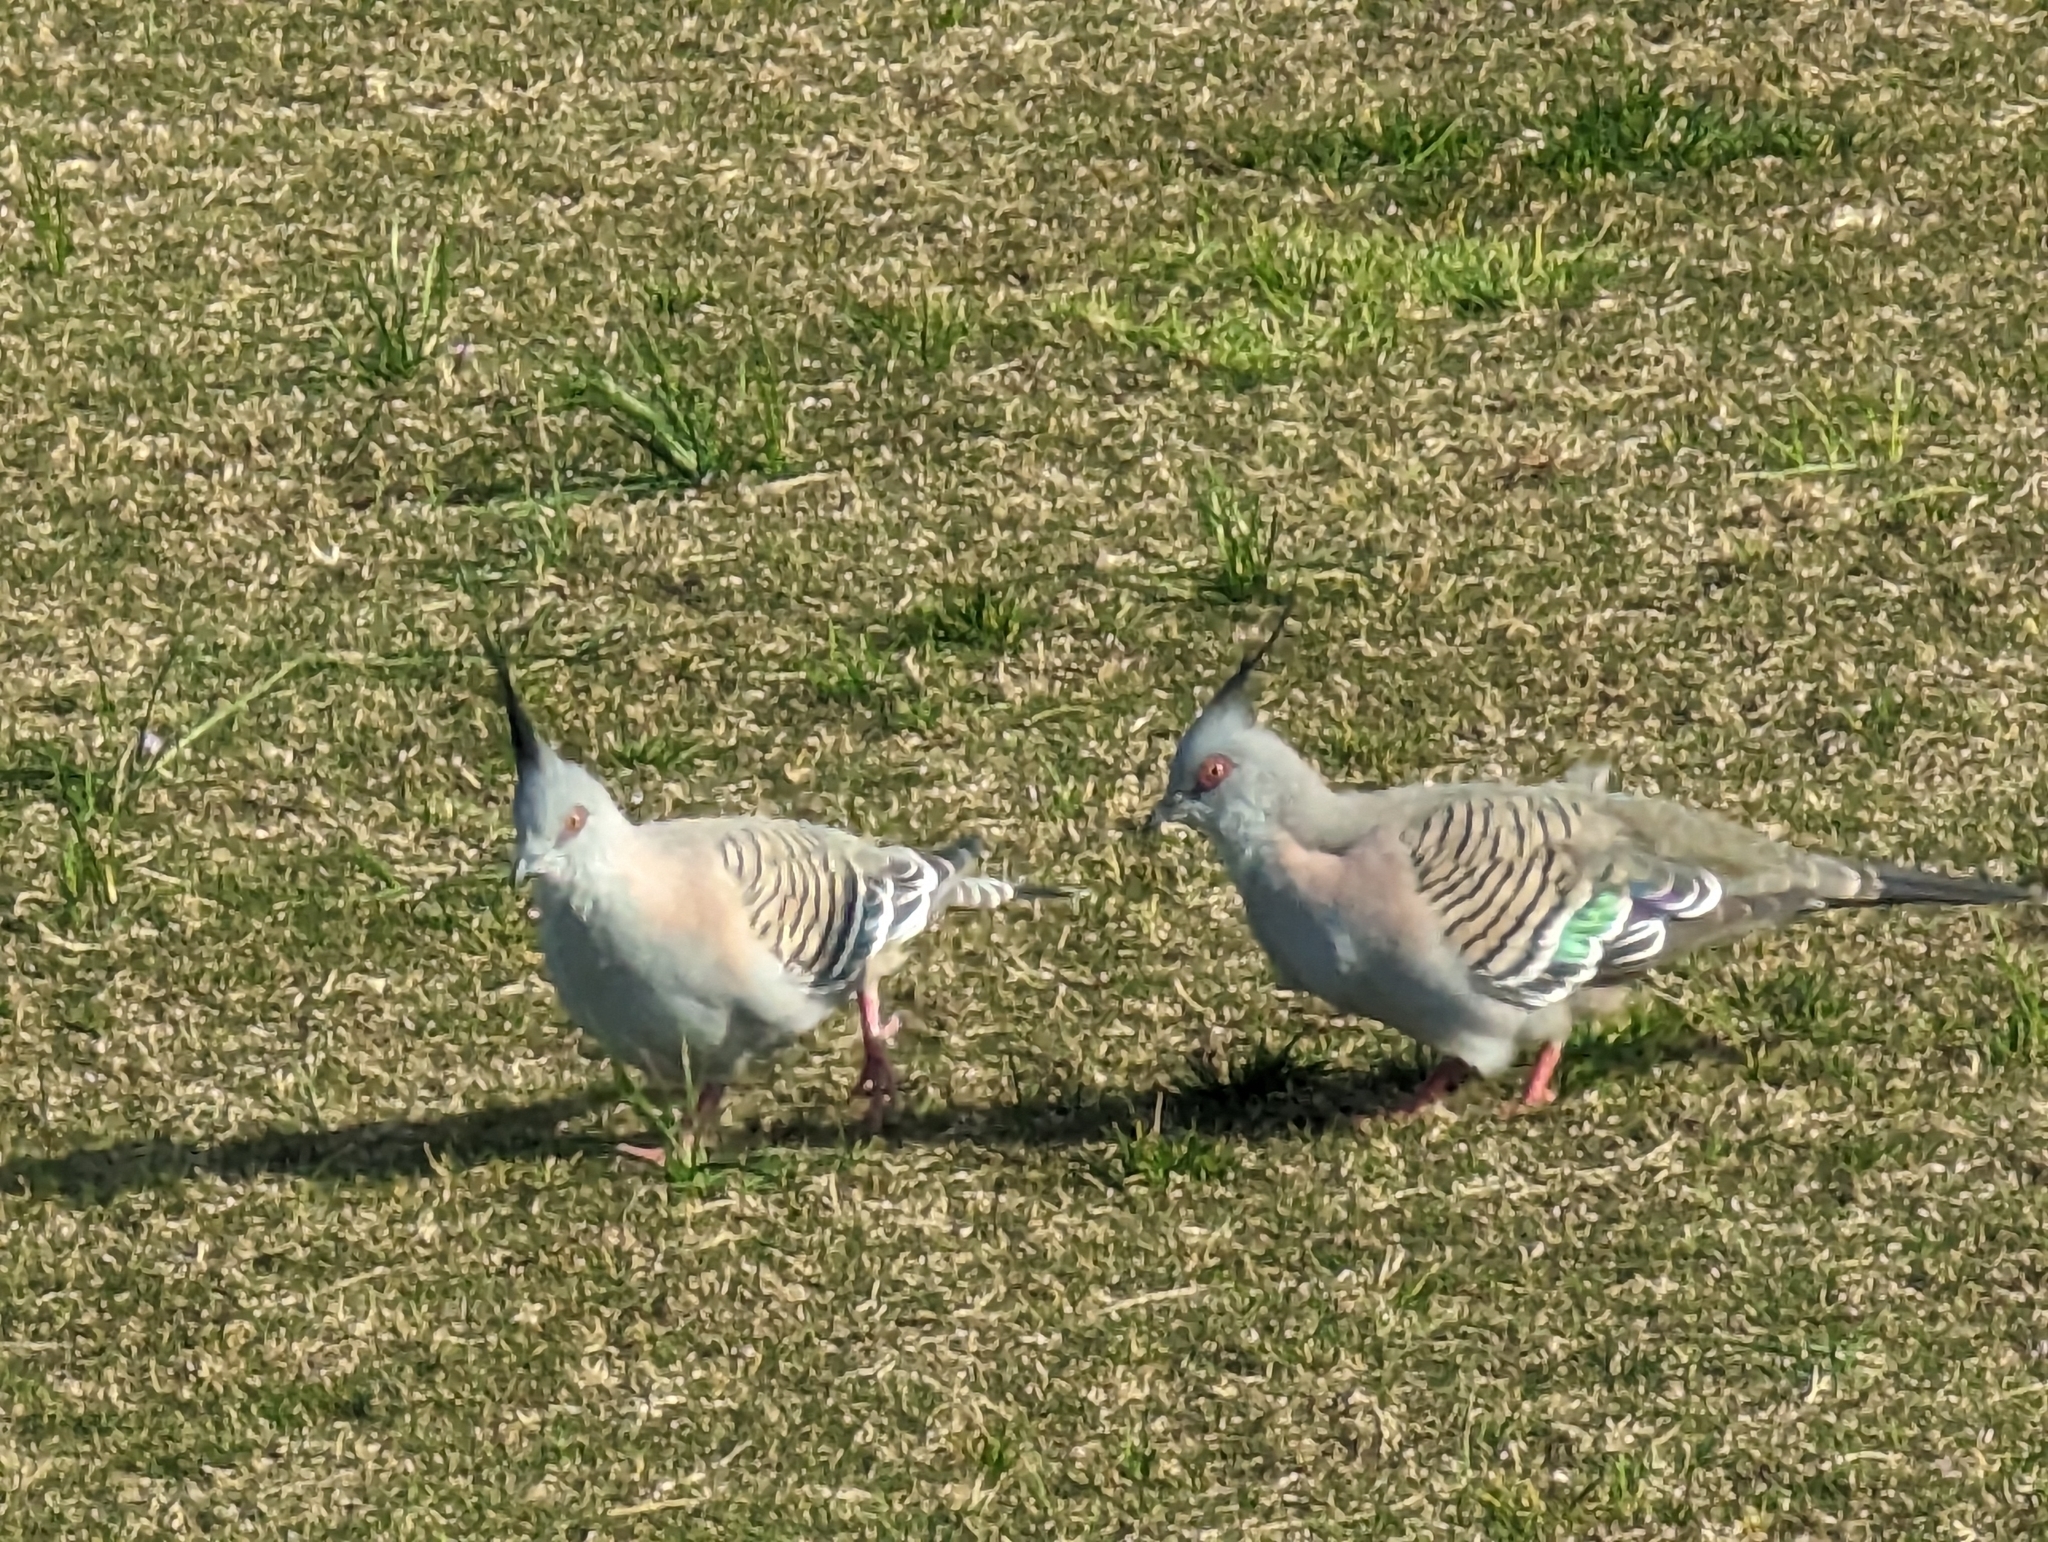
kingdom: Animalia
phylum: Chordata
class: Aves
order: Columbiformes
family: Columbidae
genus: Ocyphaps
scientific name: Ocyphaps lophotes
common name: Crested pigeon
